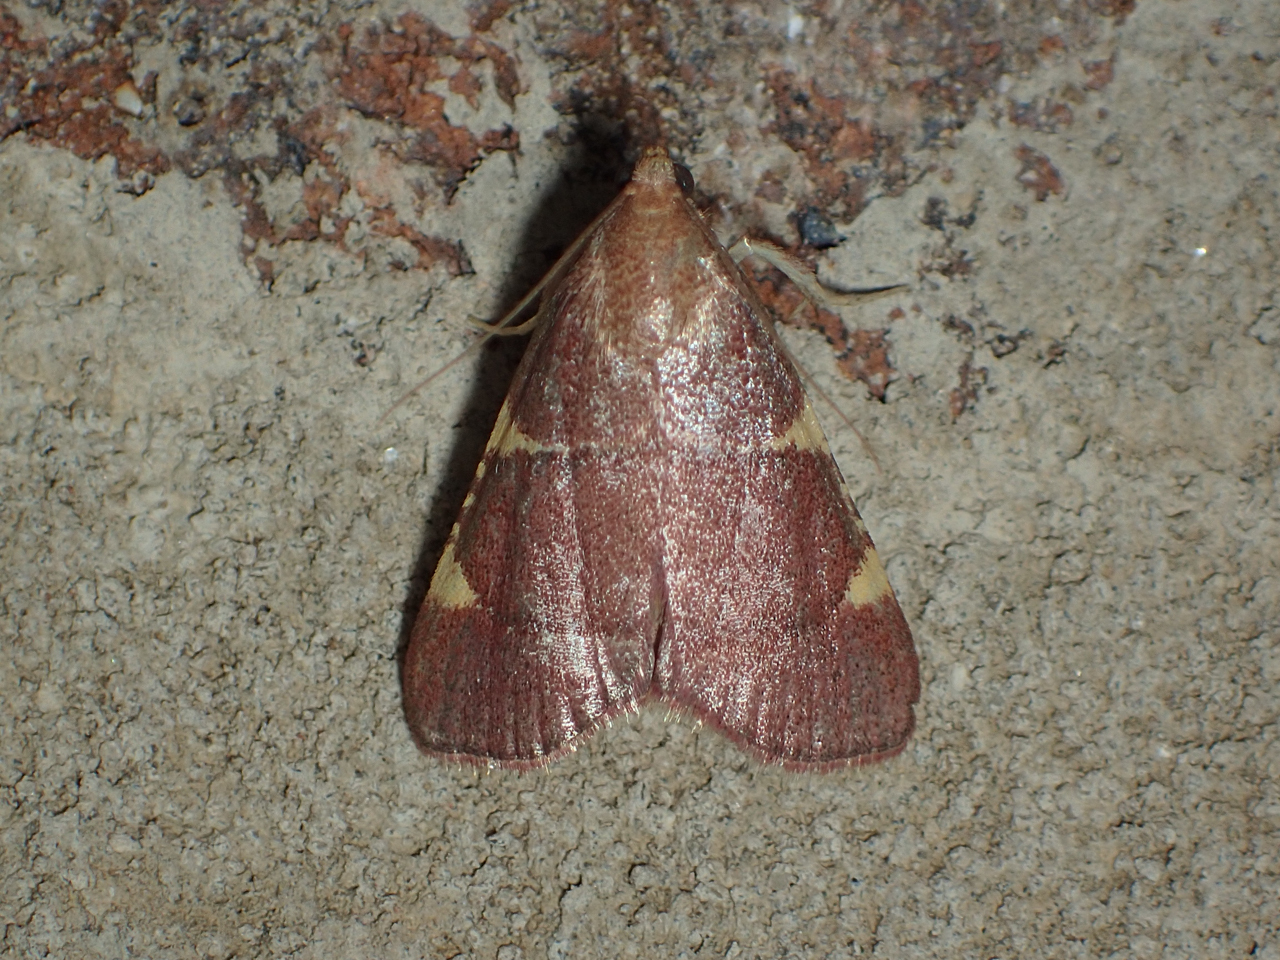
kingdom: Animalia
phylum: Arthropoda
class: Insecta
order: Lepidoptera
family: Pyralidae
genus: Hypsopygia
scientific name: Hypsopygia binodulalis
